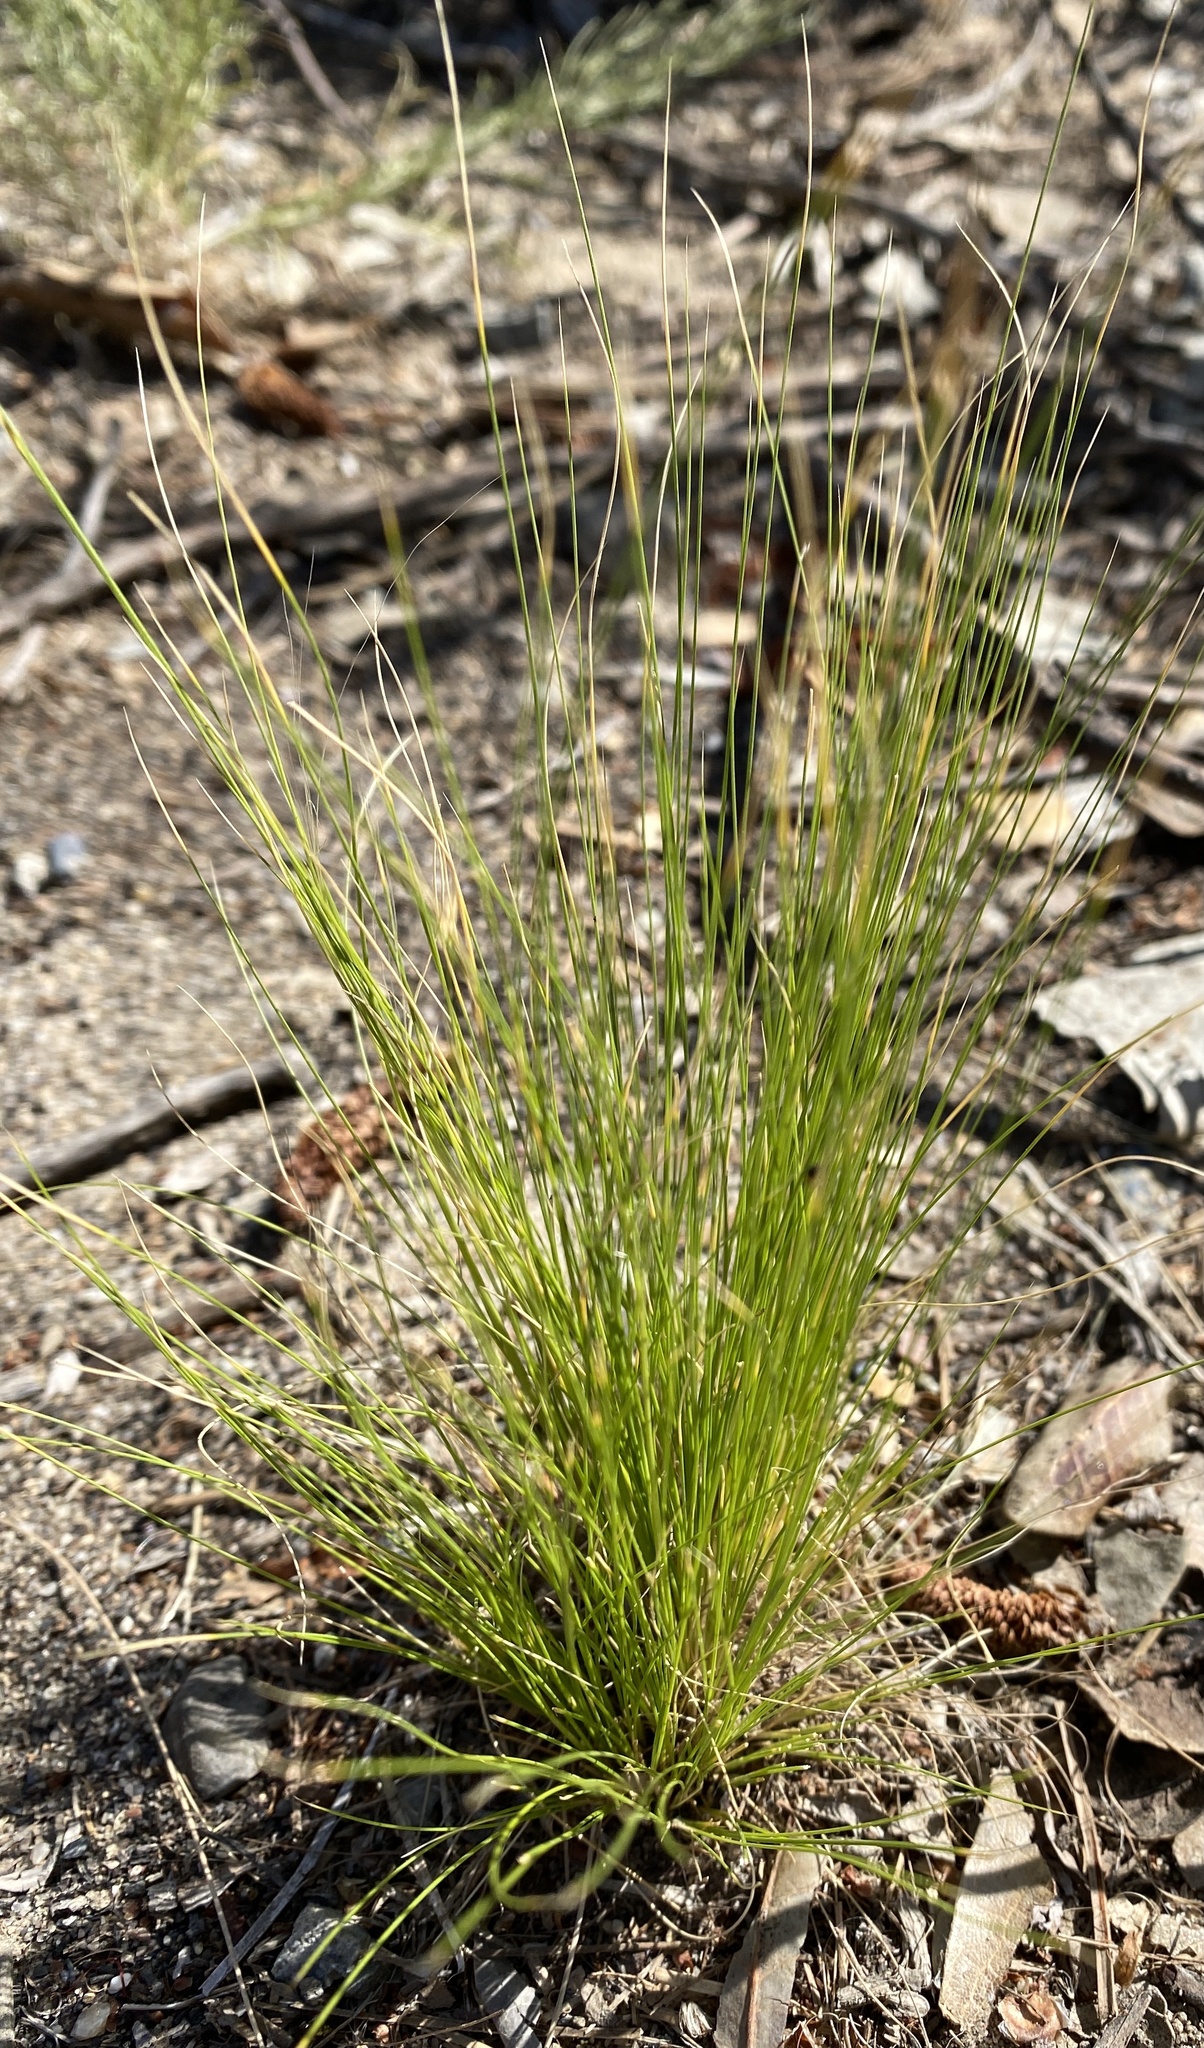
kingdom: Plantae
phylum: Tracheophyta
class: Liliopsida
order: Poales
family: Poaceae
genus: Nassella
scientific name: Nassella tenuissima
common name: Argentine needlegrass
